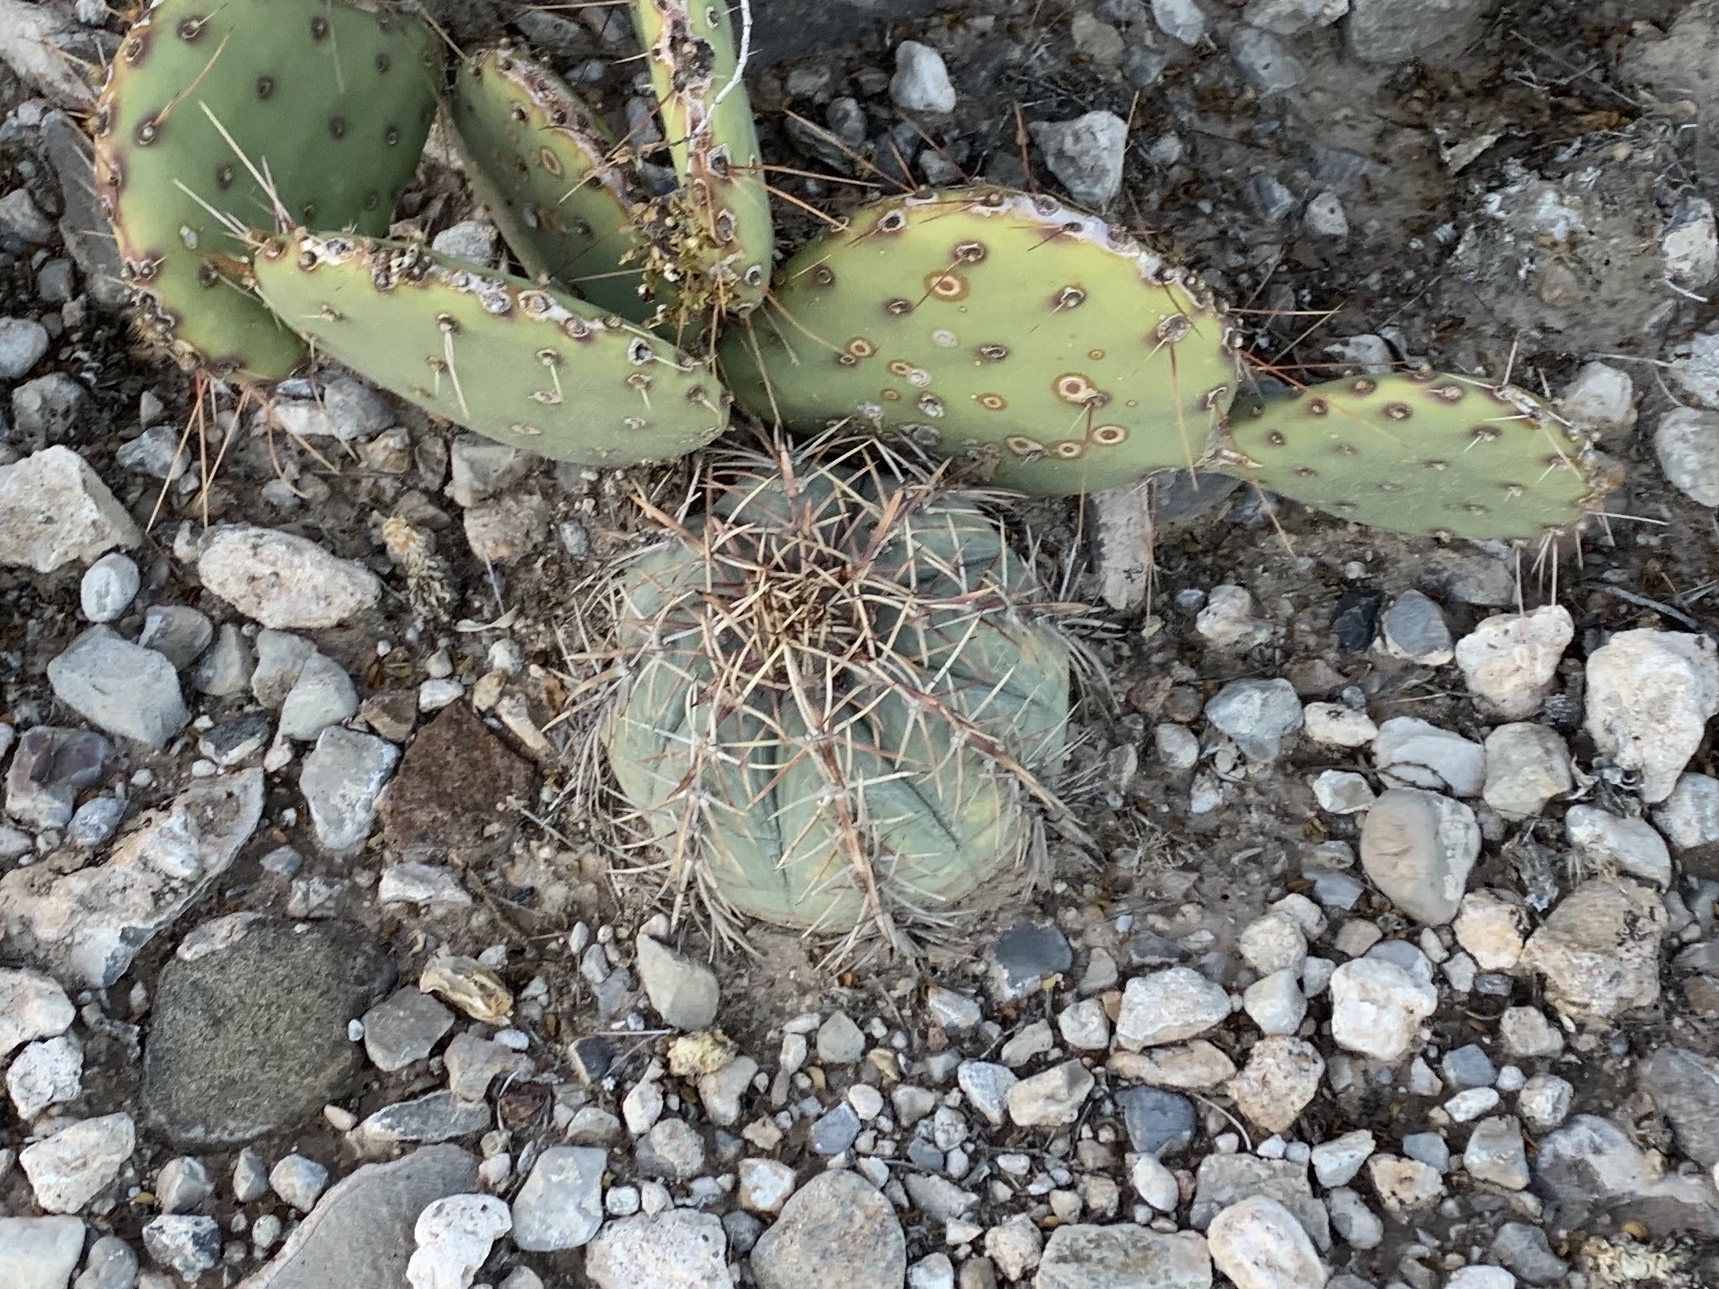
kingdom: Plantae
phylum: Tracheophyta
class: Magnoliopsida
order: Caryophyllales
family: Cactaceae
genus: Echinocactus
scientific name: Echinocactus horizonthalonius
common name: Devilshead
